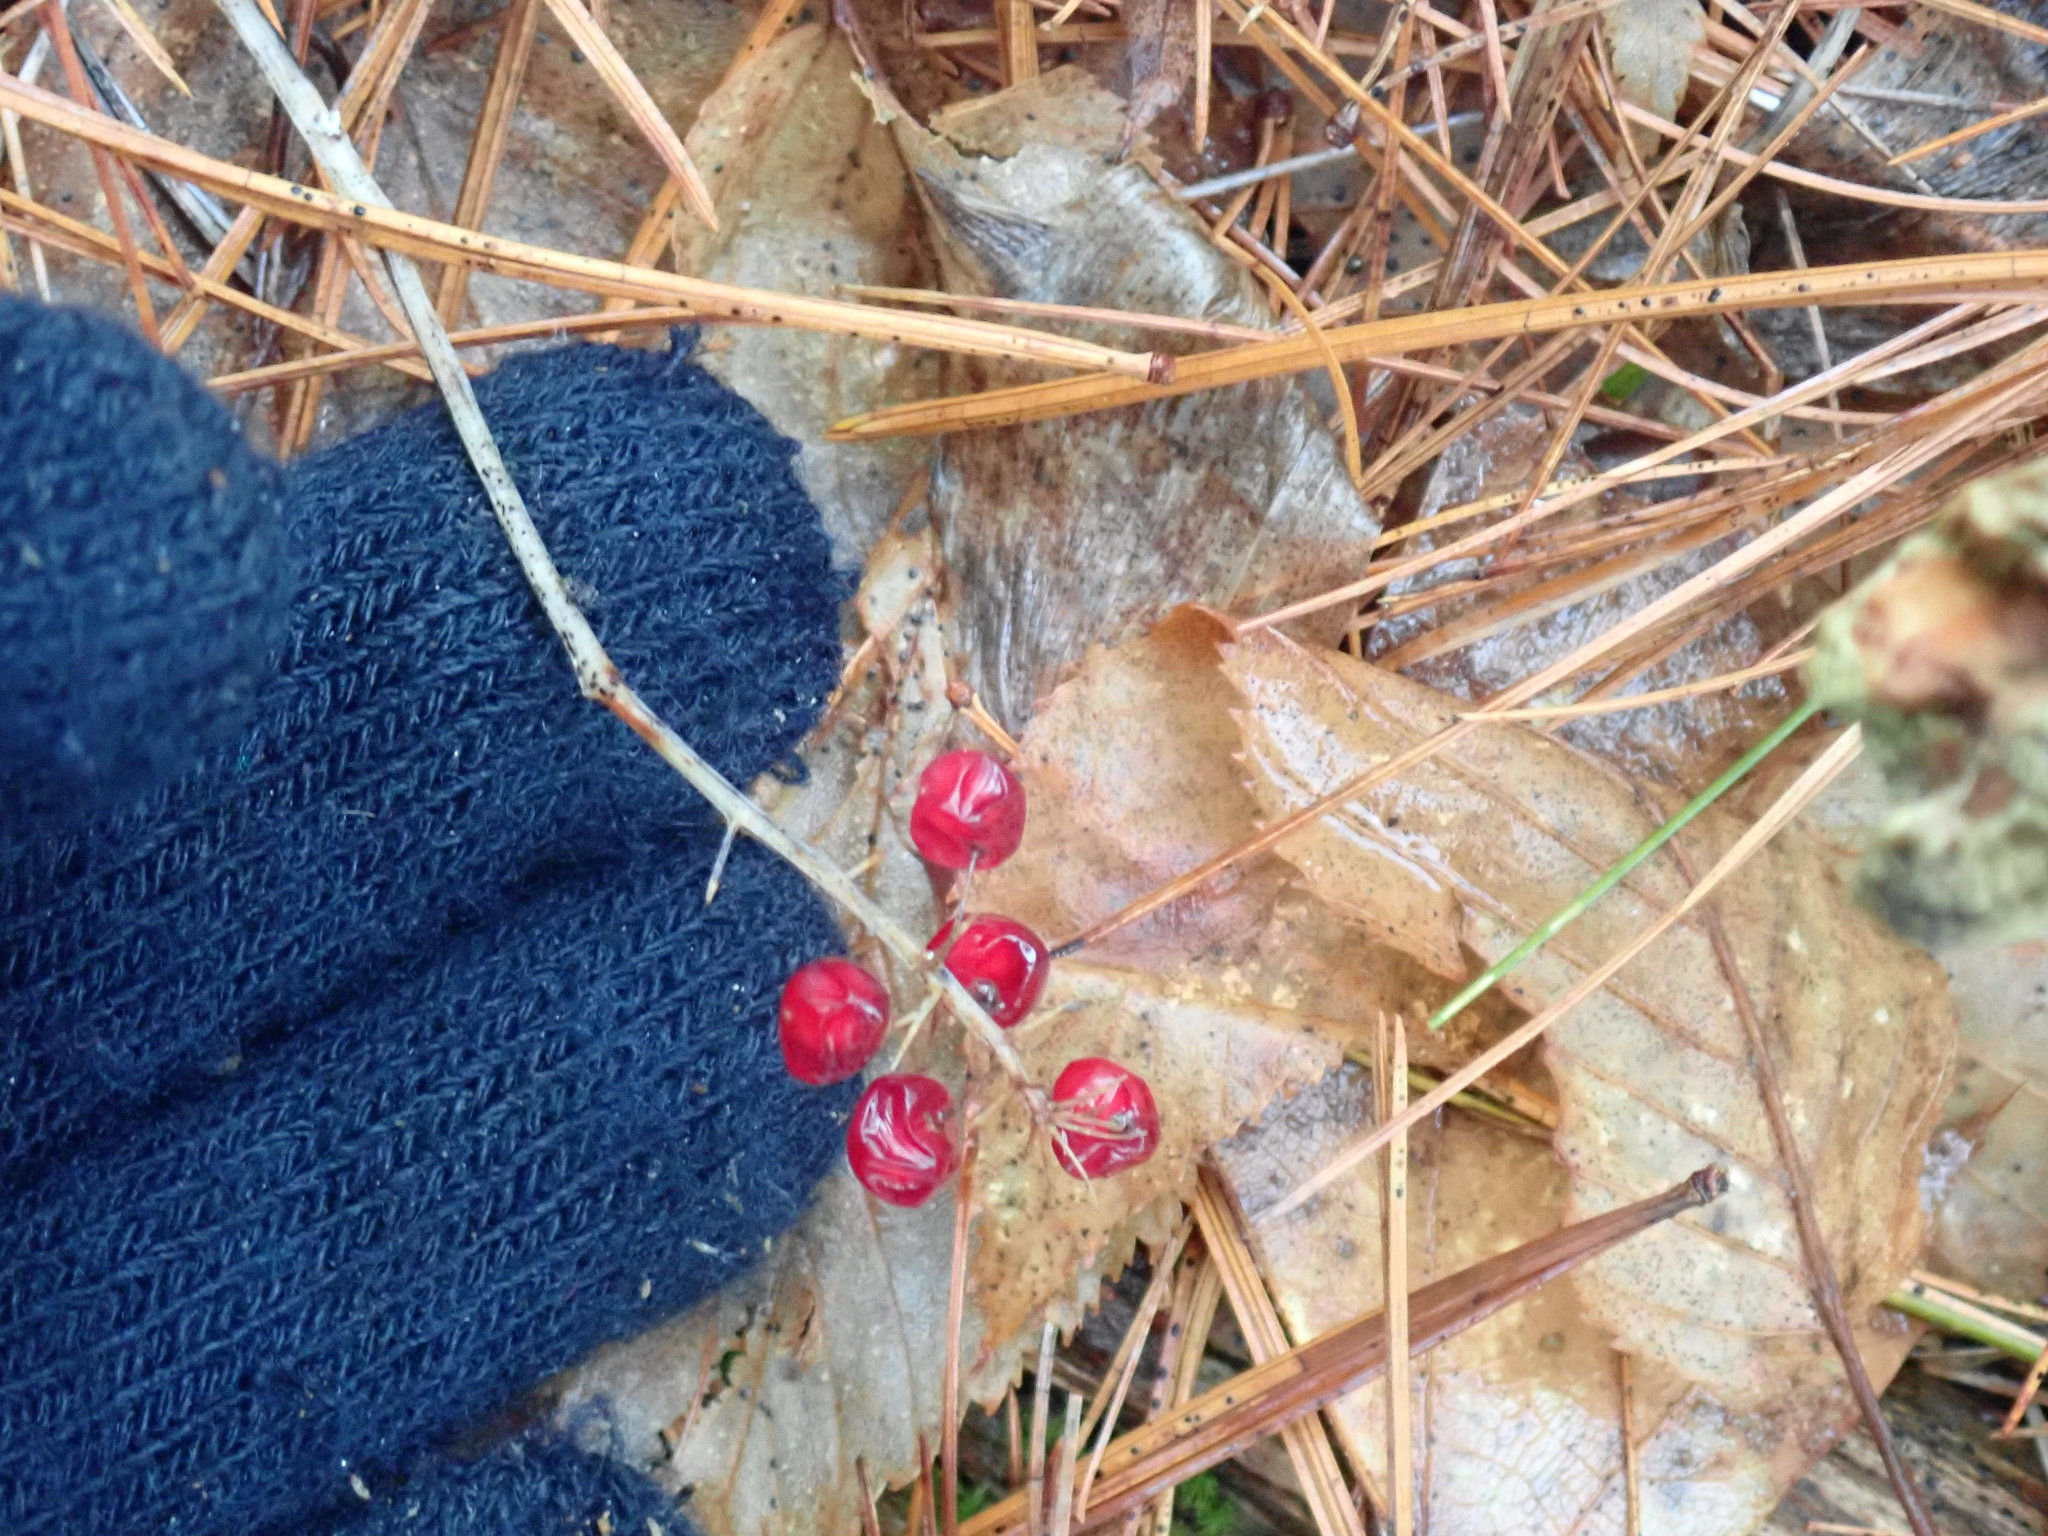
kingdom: Plantae
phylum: Tracheophyta
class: Liliopsida
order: Asparagales
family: Asparagaceae
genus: Maianthemum
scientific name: Maianthemum canadense
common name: False lily-of-the-valley
